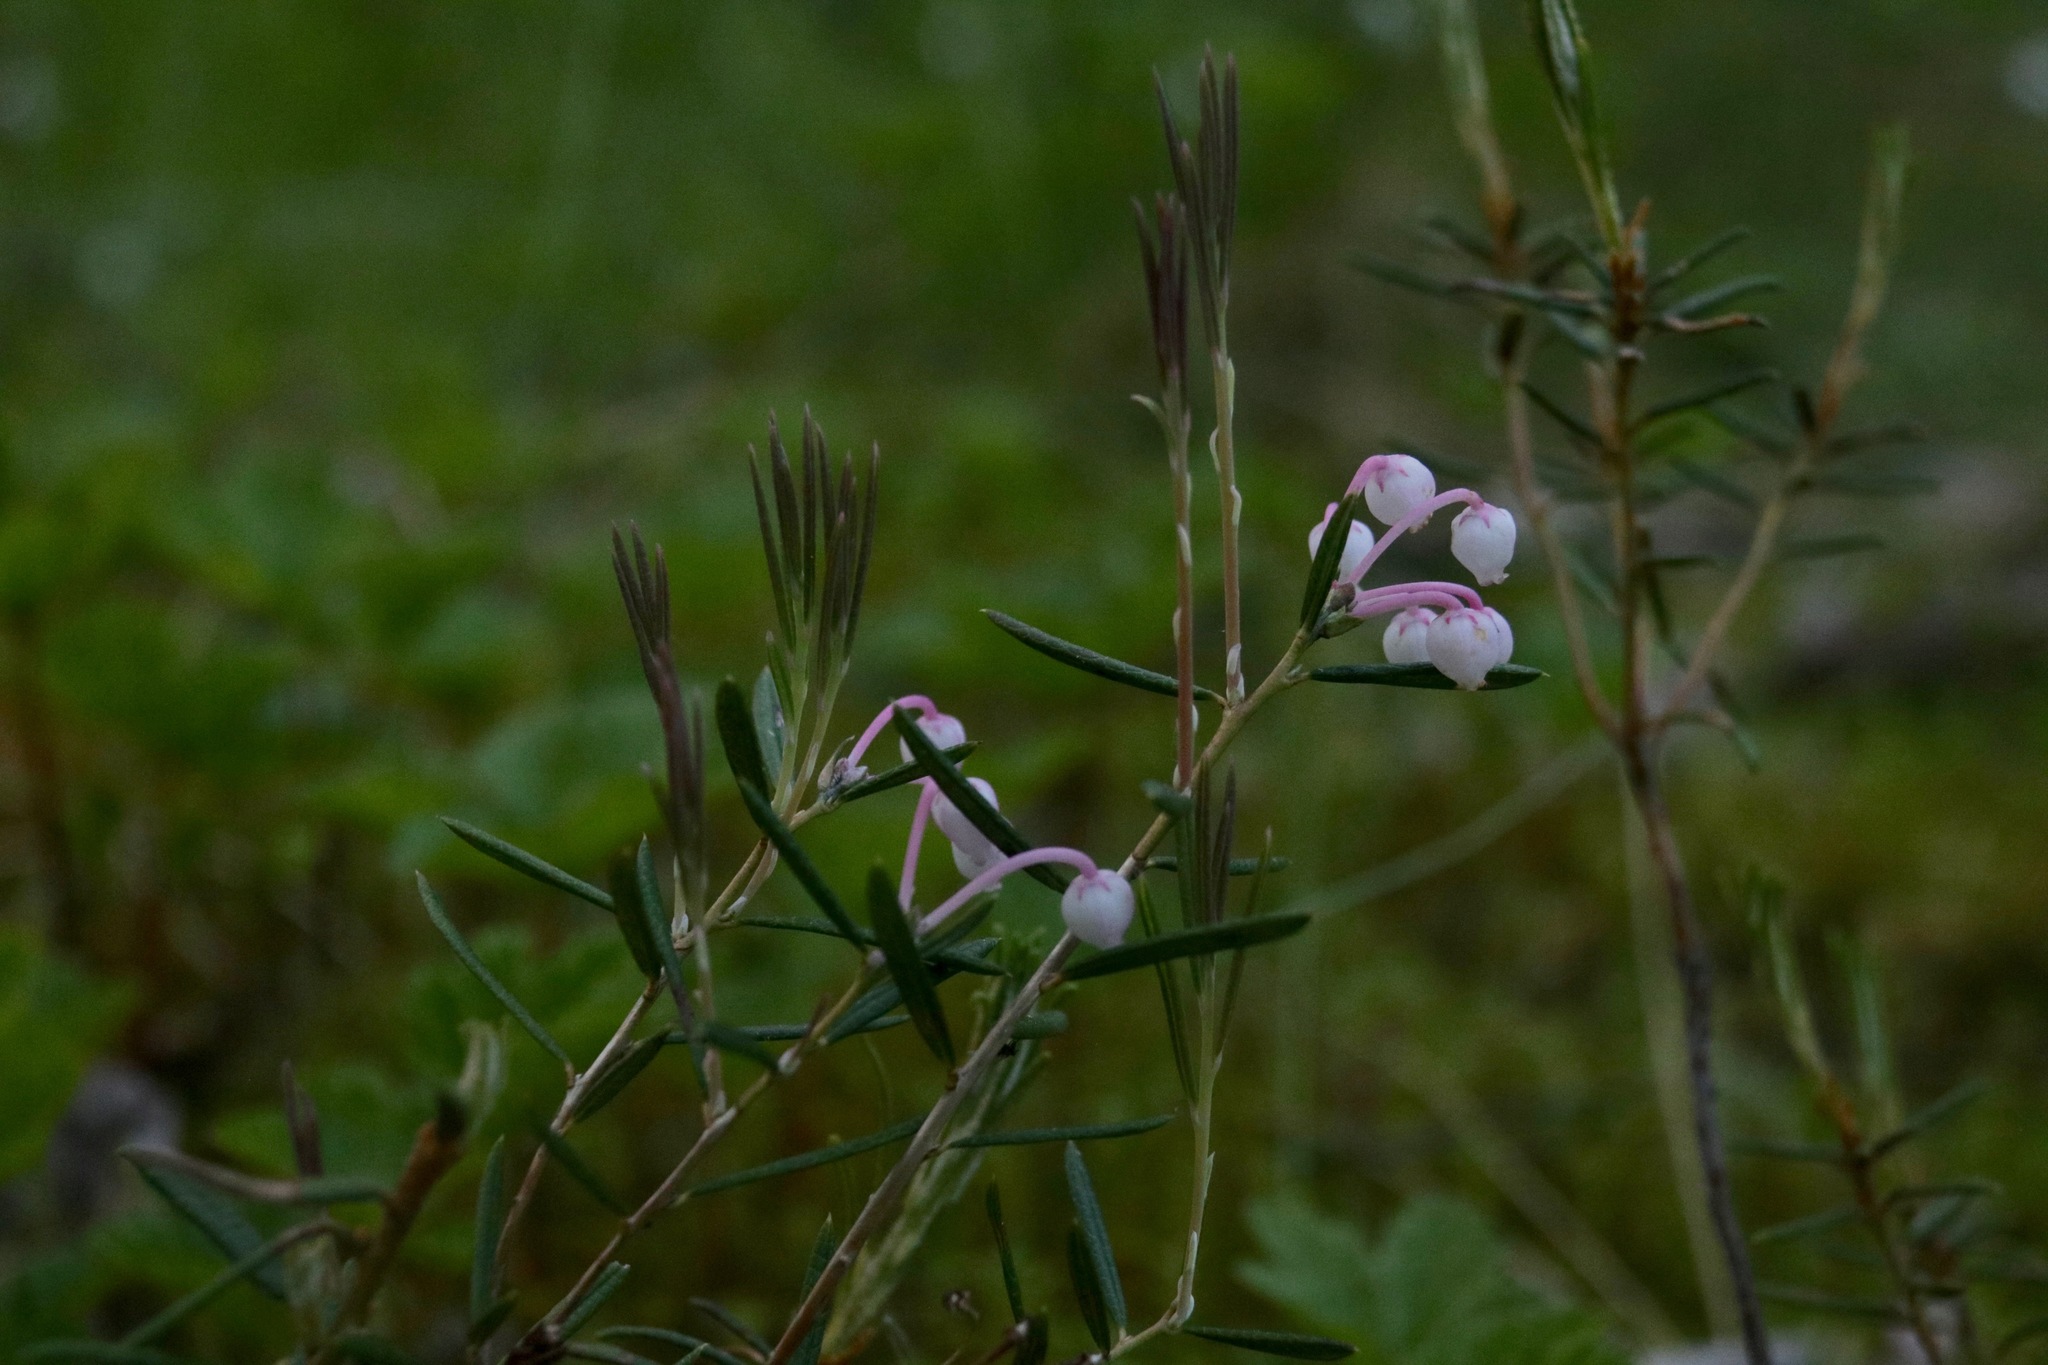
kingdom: Plantae
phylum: Tracheophyta
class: Magnoliopsida
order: Ericales
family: Ericaceae
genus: Andromeda
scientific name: Andromeda polifolia
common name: Bog-rosemary
